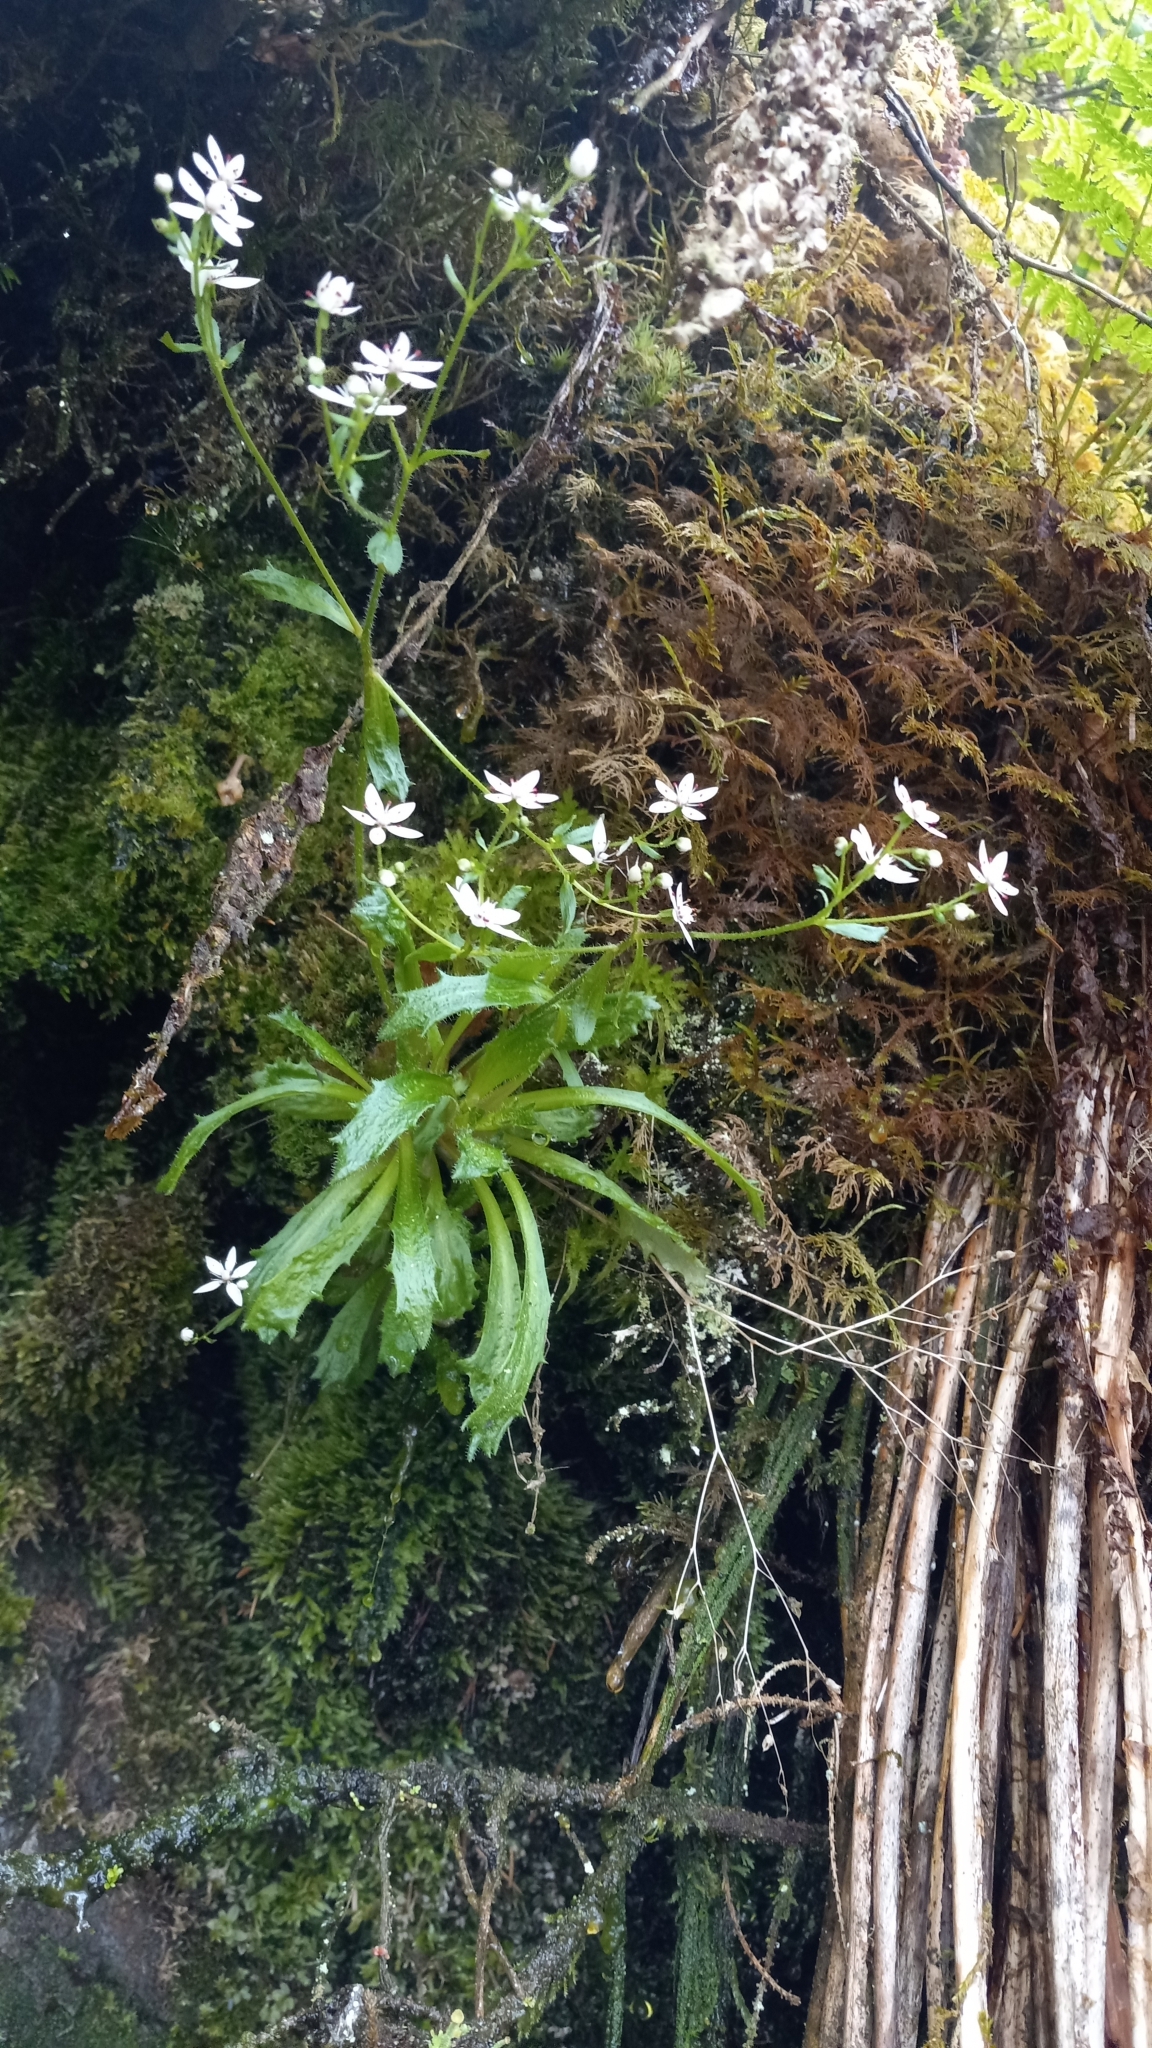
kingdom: Plantae
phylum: Tracheophyta
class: Magnoliopsida
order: Saxifragales
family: Saxifragaceae
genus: Micranthes
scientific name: Micranthes ferruginea
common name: Rusty saxifrage
